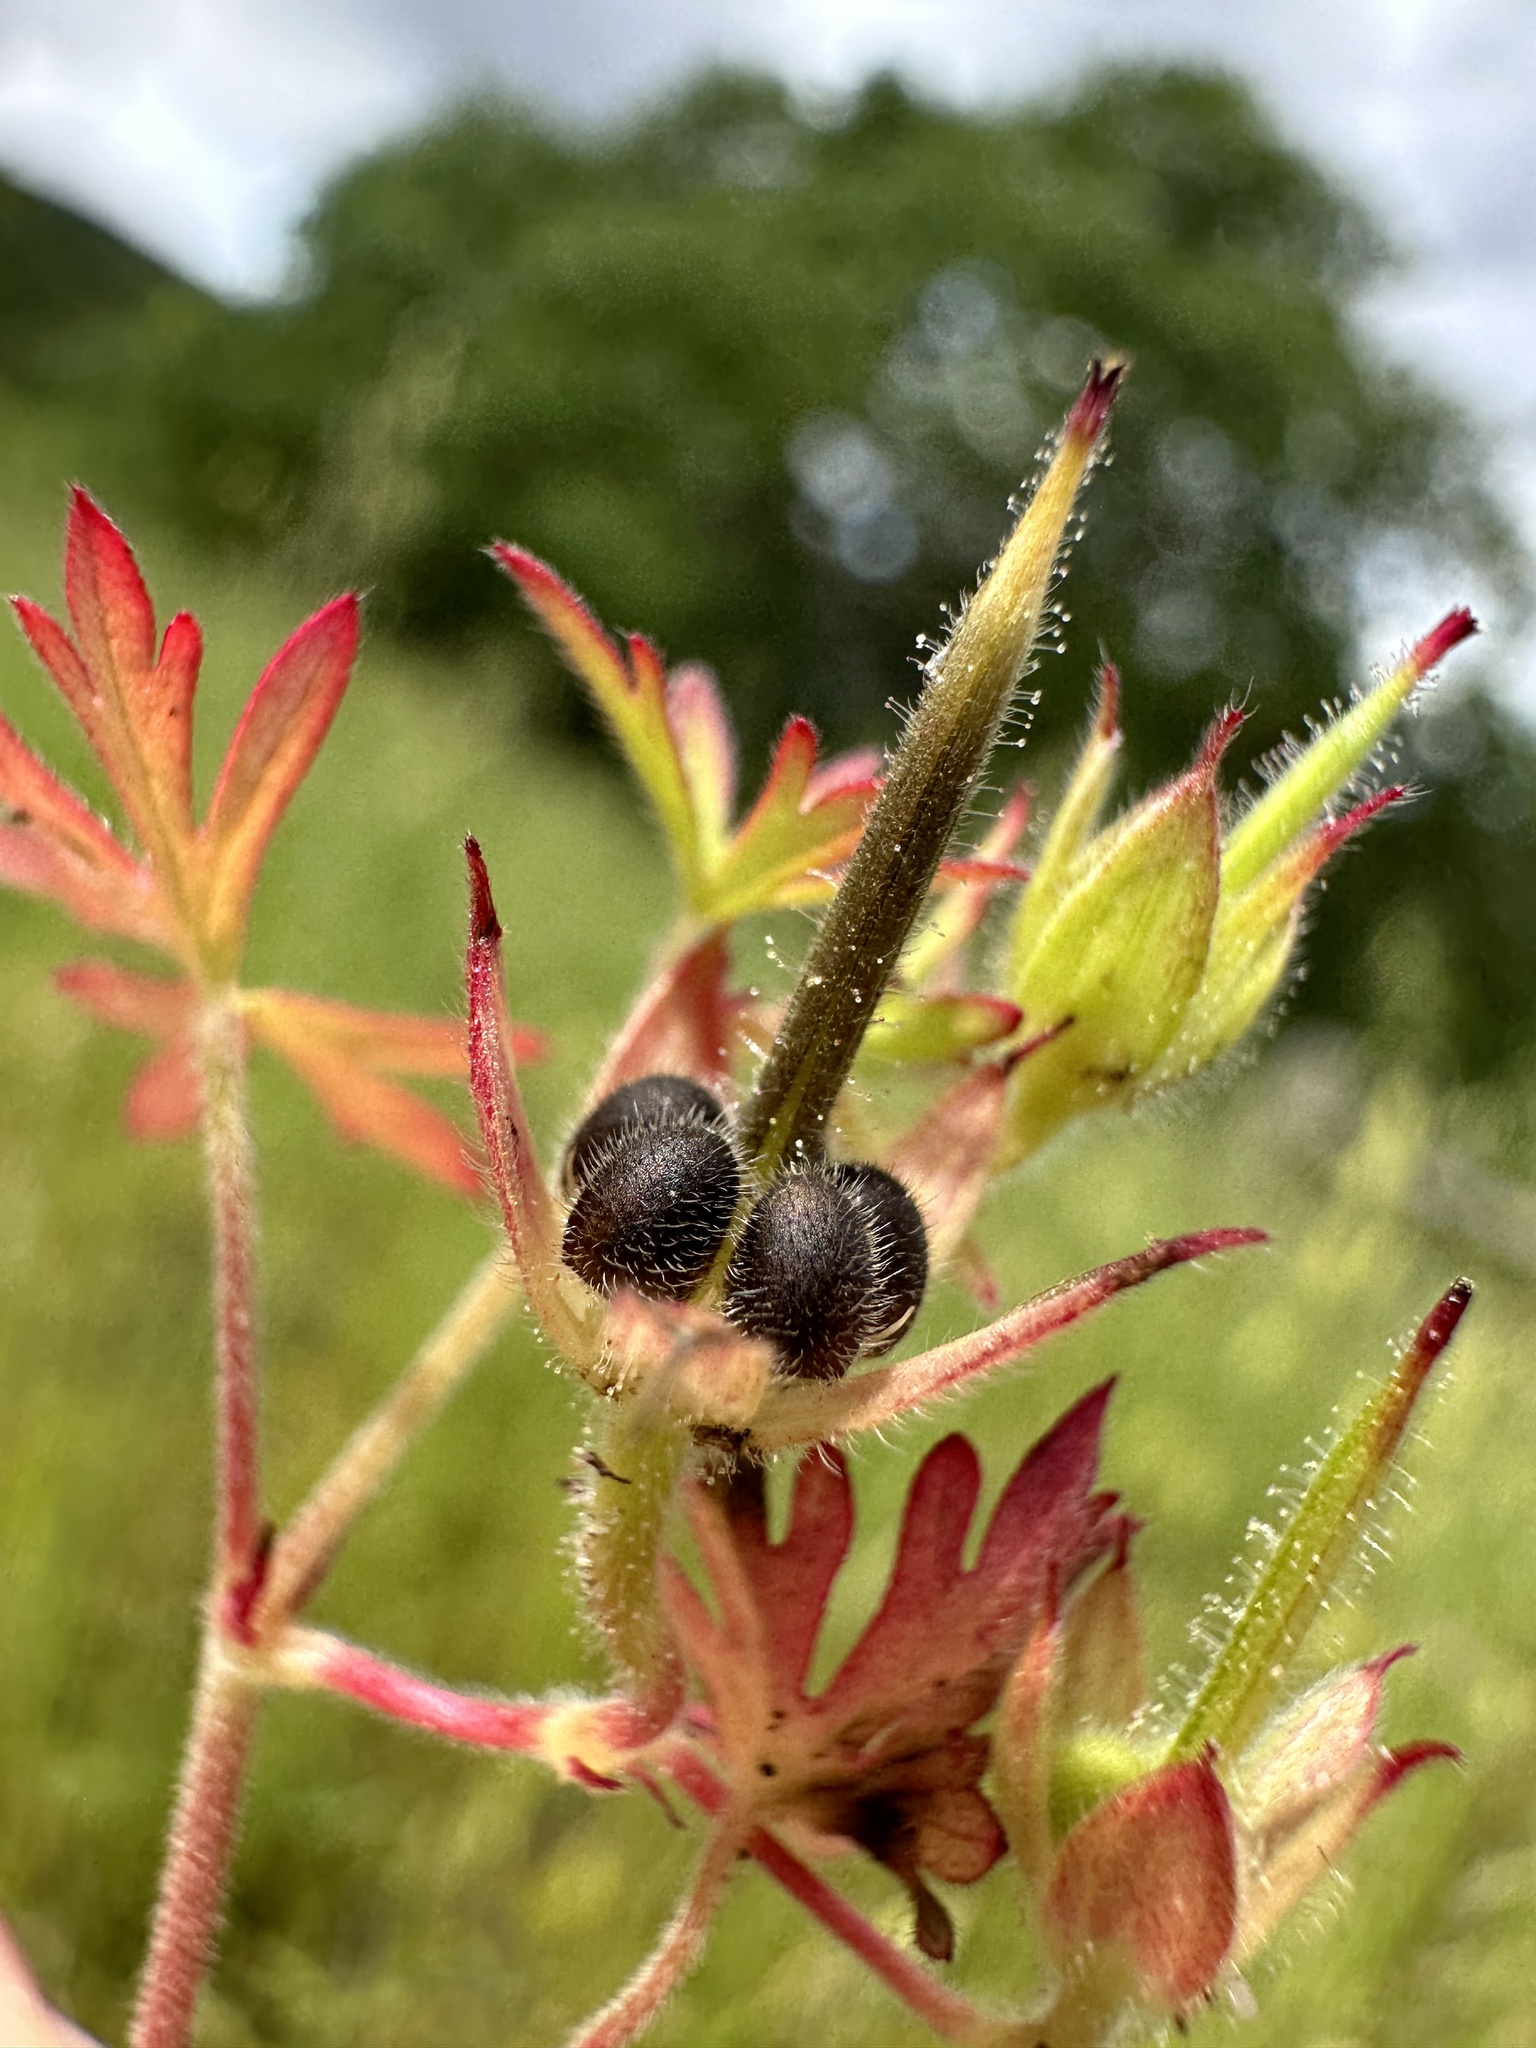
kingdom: Plantae
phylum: Tracheophyta
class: Magnoliopsida
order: Geraniales
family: Geraniaceae
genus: Geranium
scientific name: Geranium dissectum
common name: Cut-leaved crane's-bill
